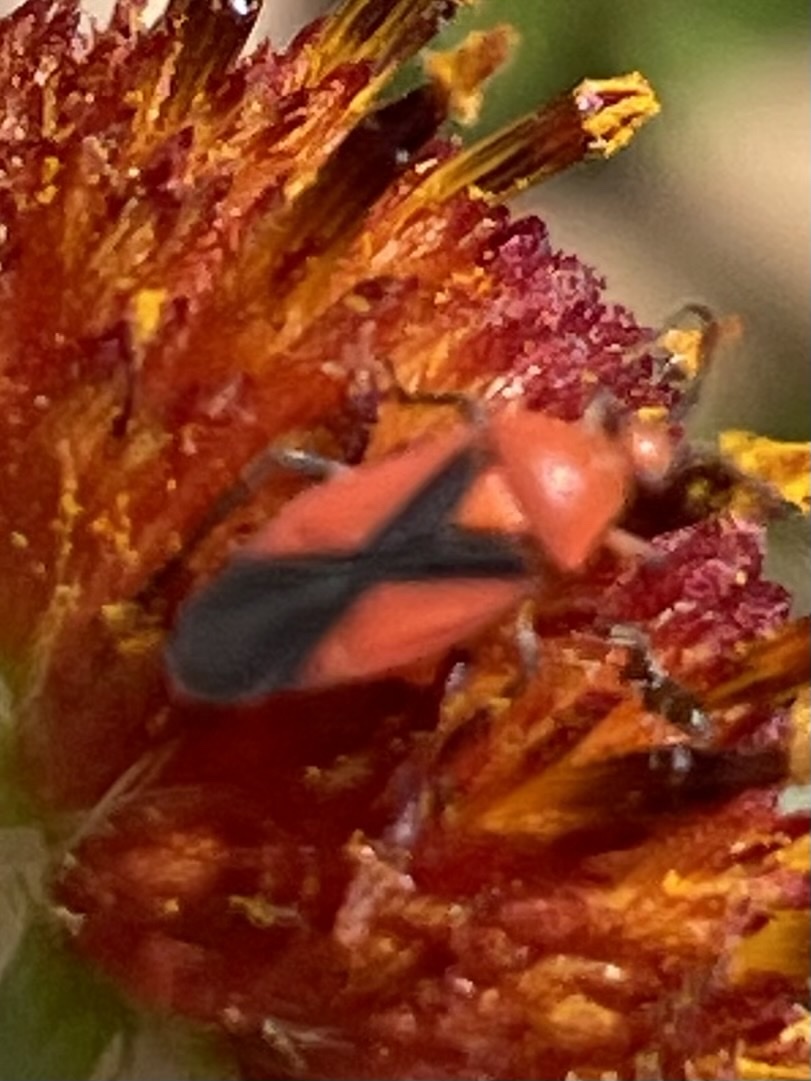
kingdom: Animalia
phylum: Arthropoda
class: Insecta
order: Hemiptera
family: Miridae
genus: Oncerometopus
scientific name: Oncerometopus nigriclavus
